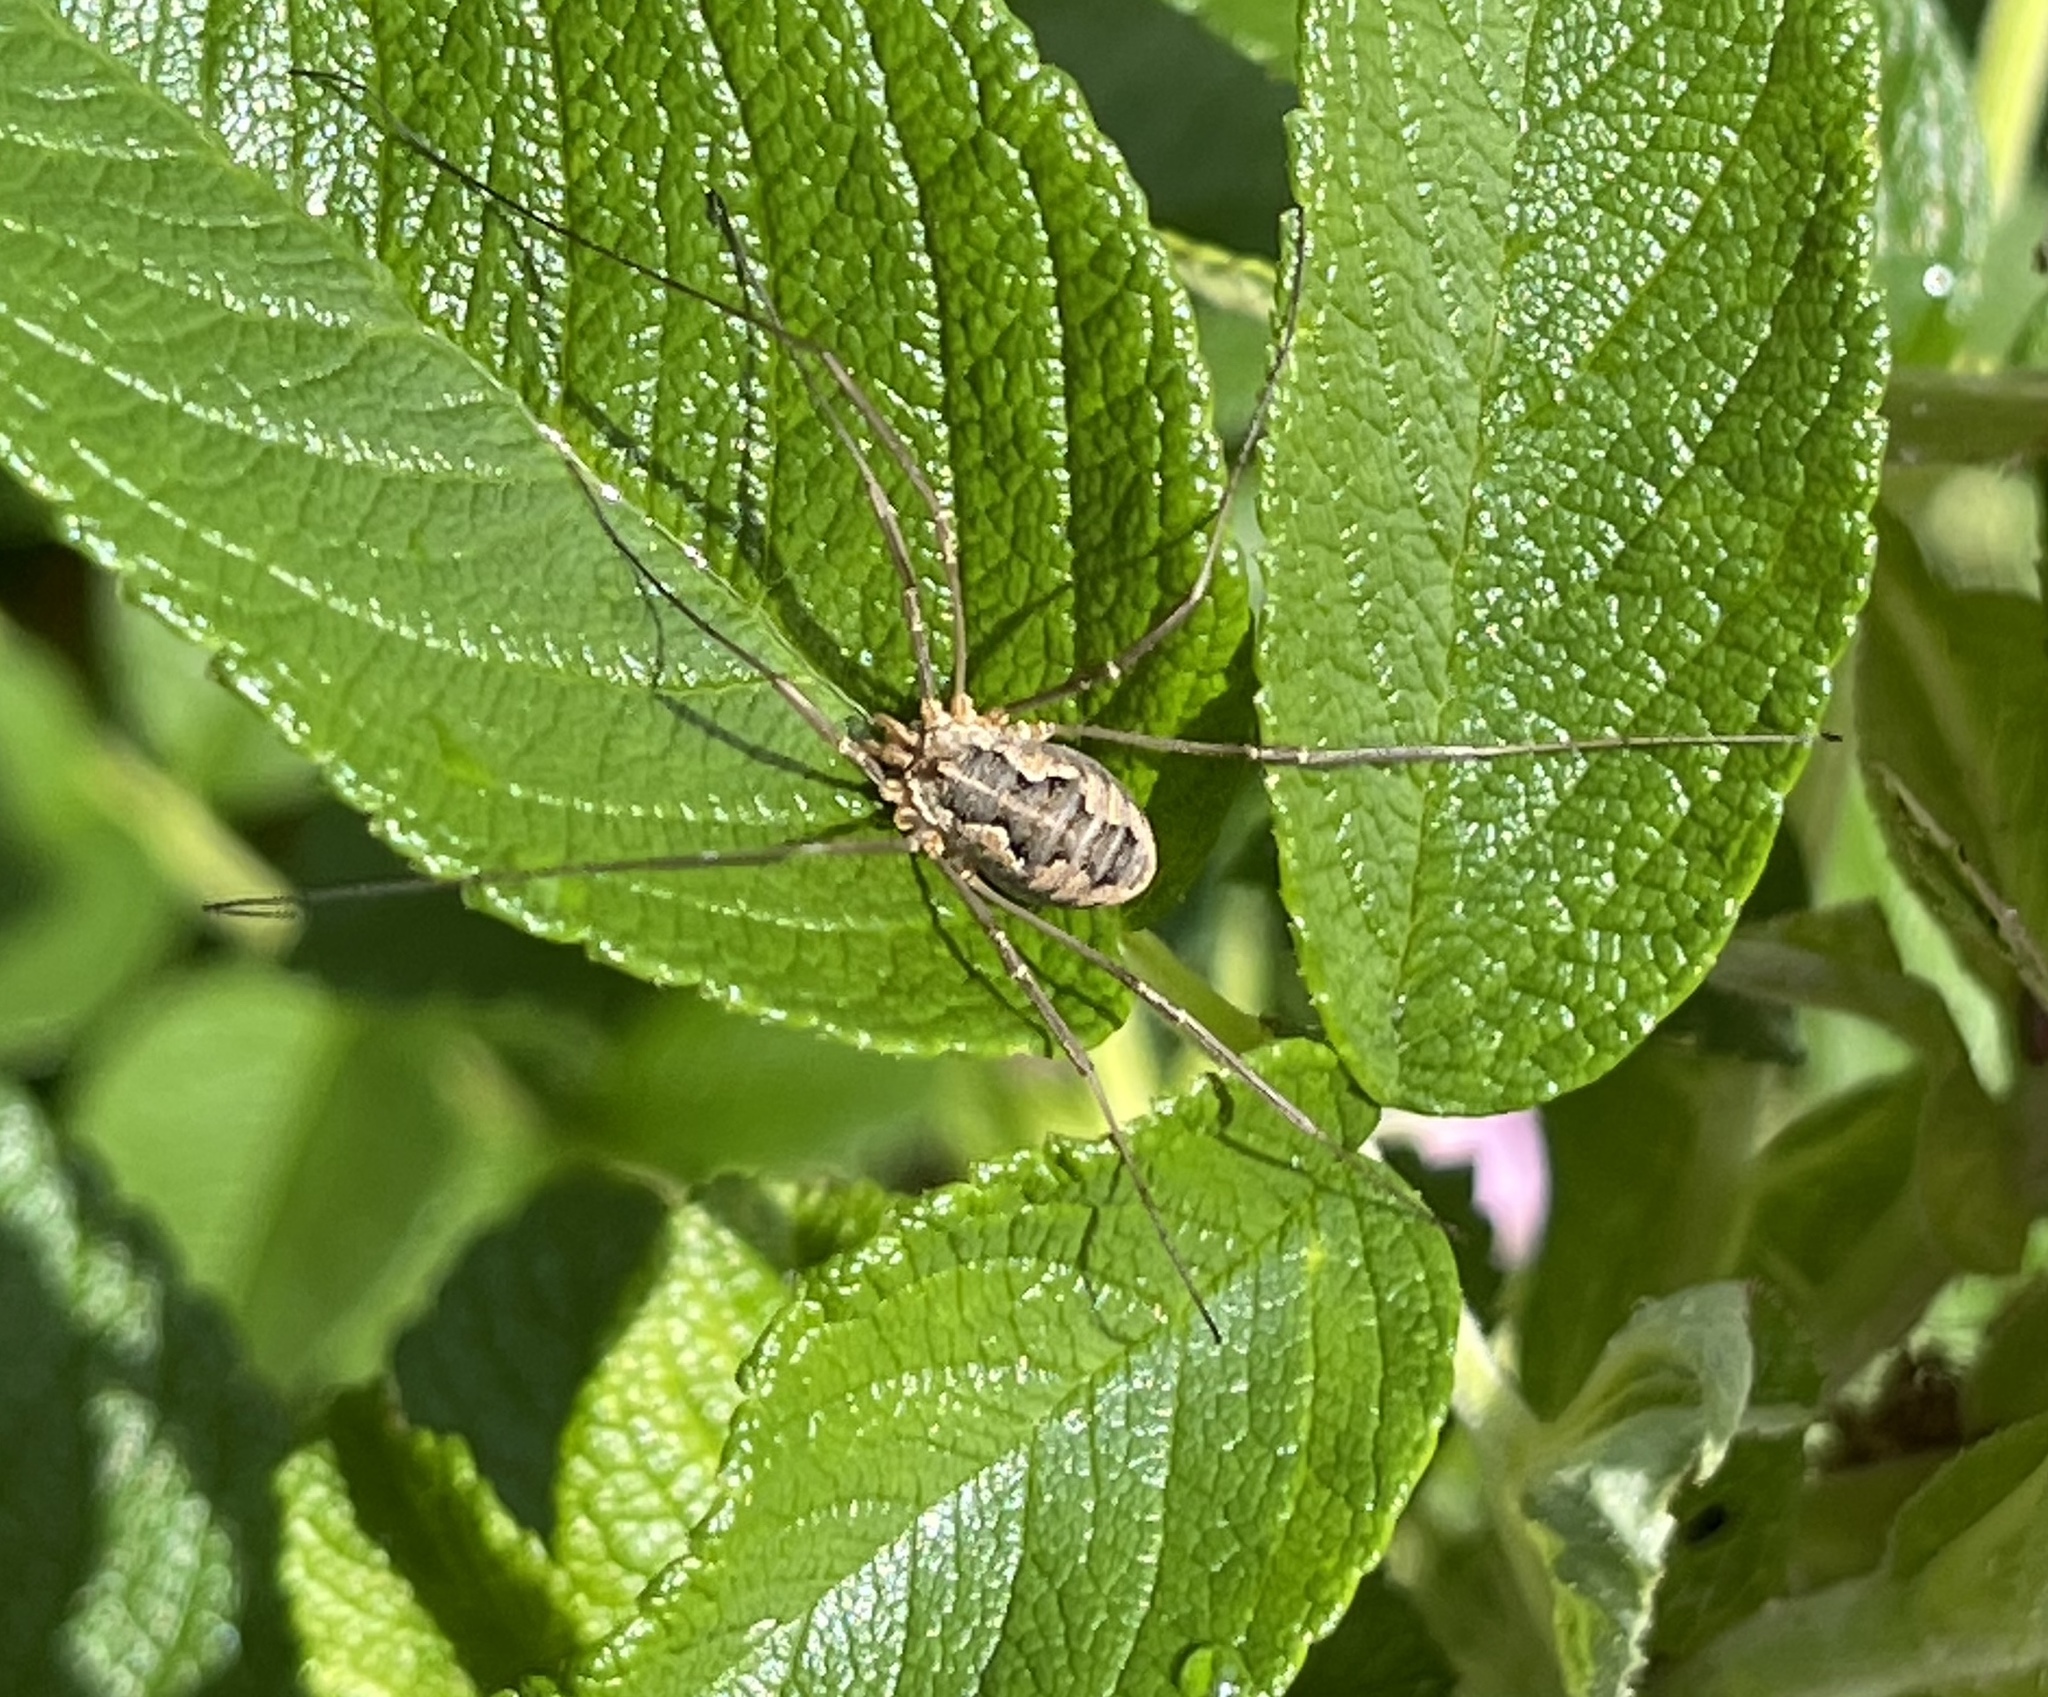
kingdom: Animalia
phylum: Arthropoda
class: Arachnida
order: Opiliones
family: Phalangiidae
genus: Phalangium
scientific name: Phalangium opilio
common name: Daddy longleg
